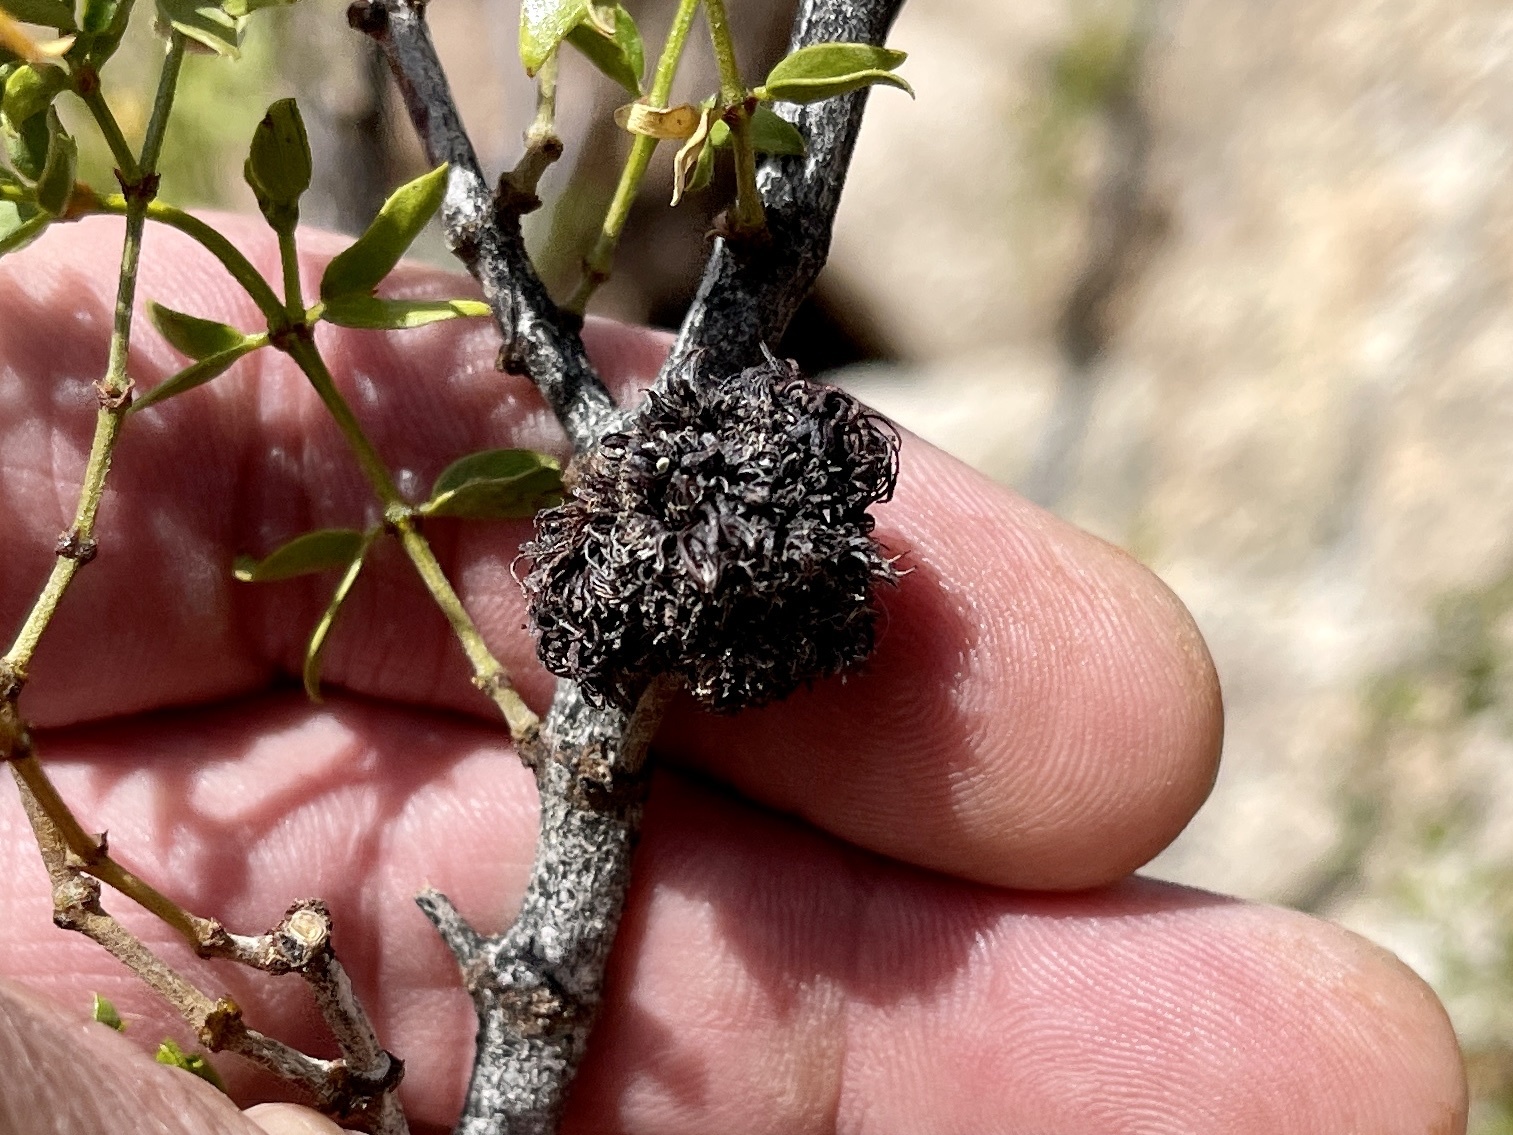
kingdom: Animalia
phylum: Arthropoda
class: Insecta
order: Diptera
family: Cecidomyiidae
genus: Asphondylia
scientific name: Asphondylia auripila
